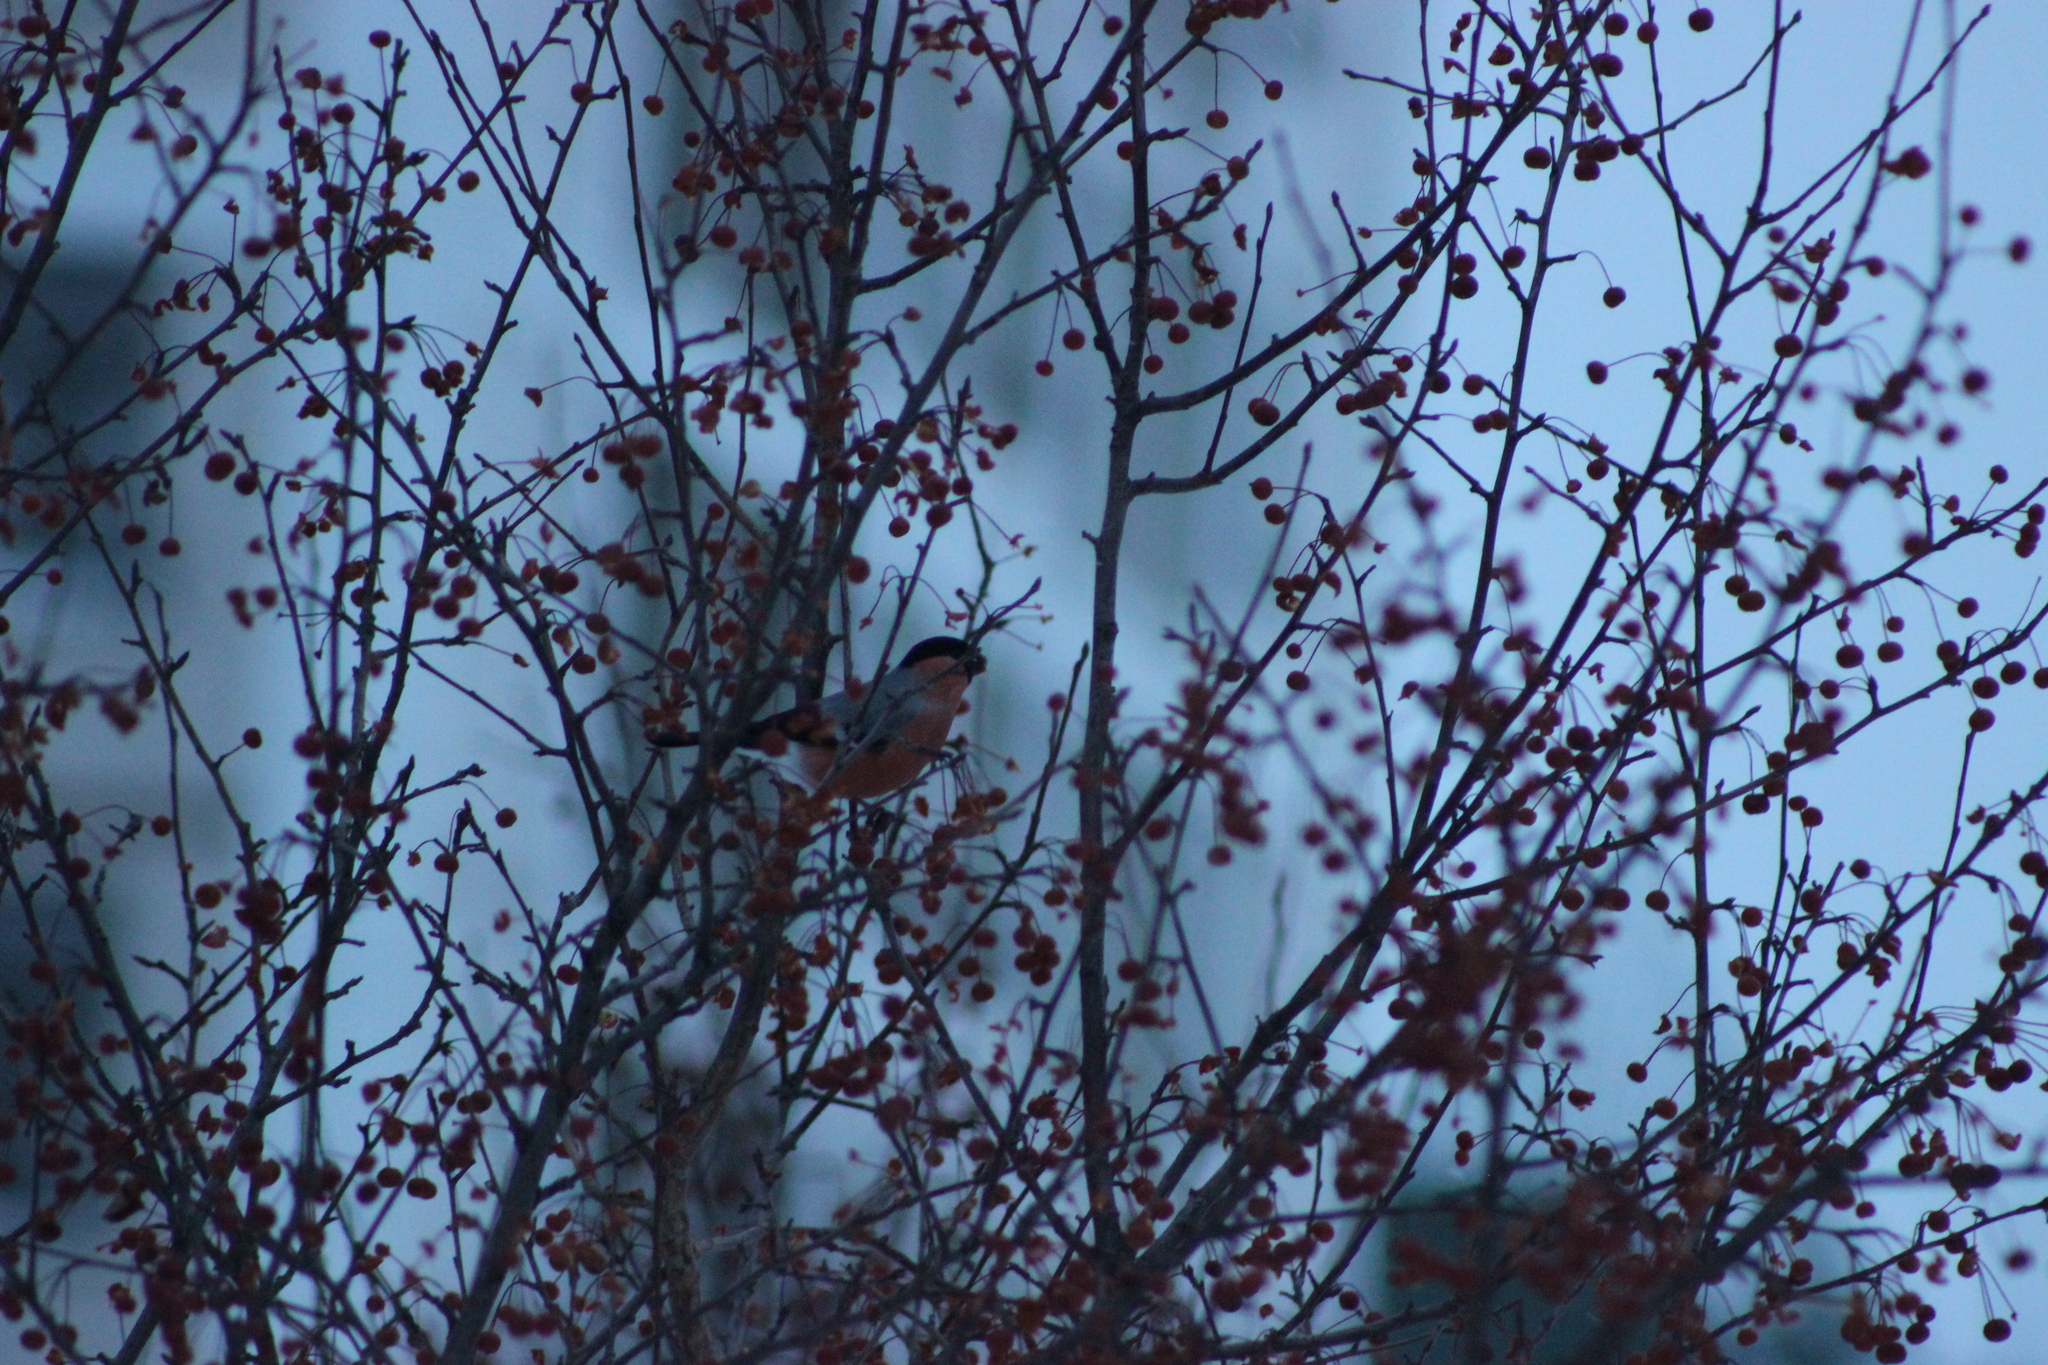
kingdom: Animalia
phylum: Chordata
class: Aves
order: Passeriformes
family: Fringillidae
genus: Pyrrhula
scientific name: Pyrrhula pyrrhula
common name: Eurasian bullfinch
